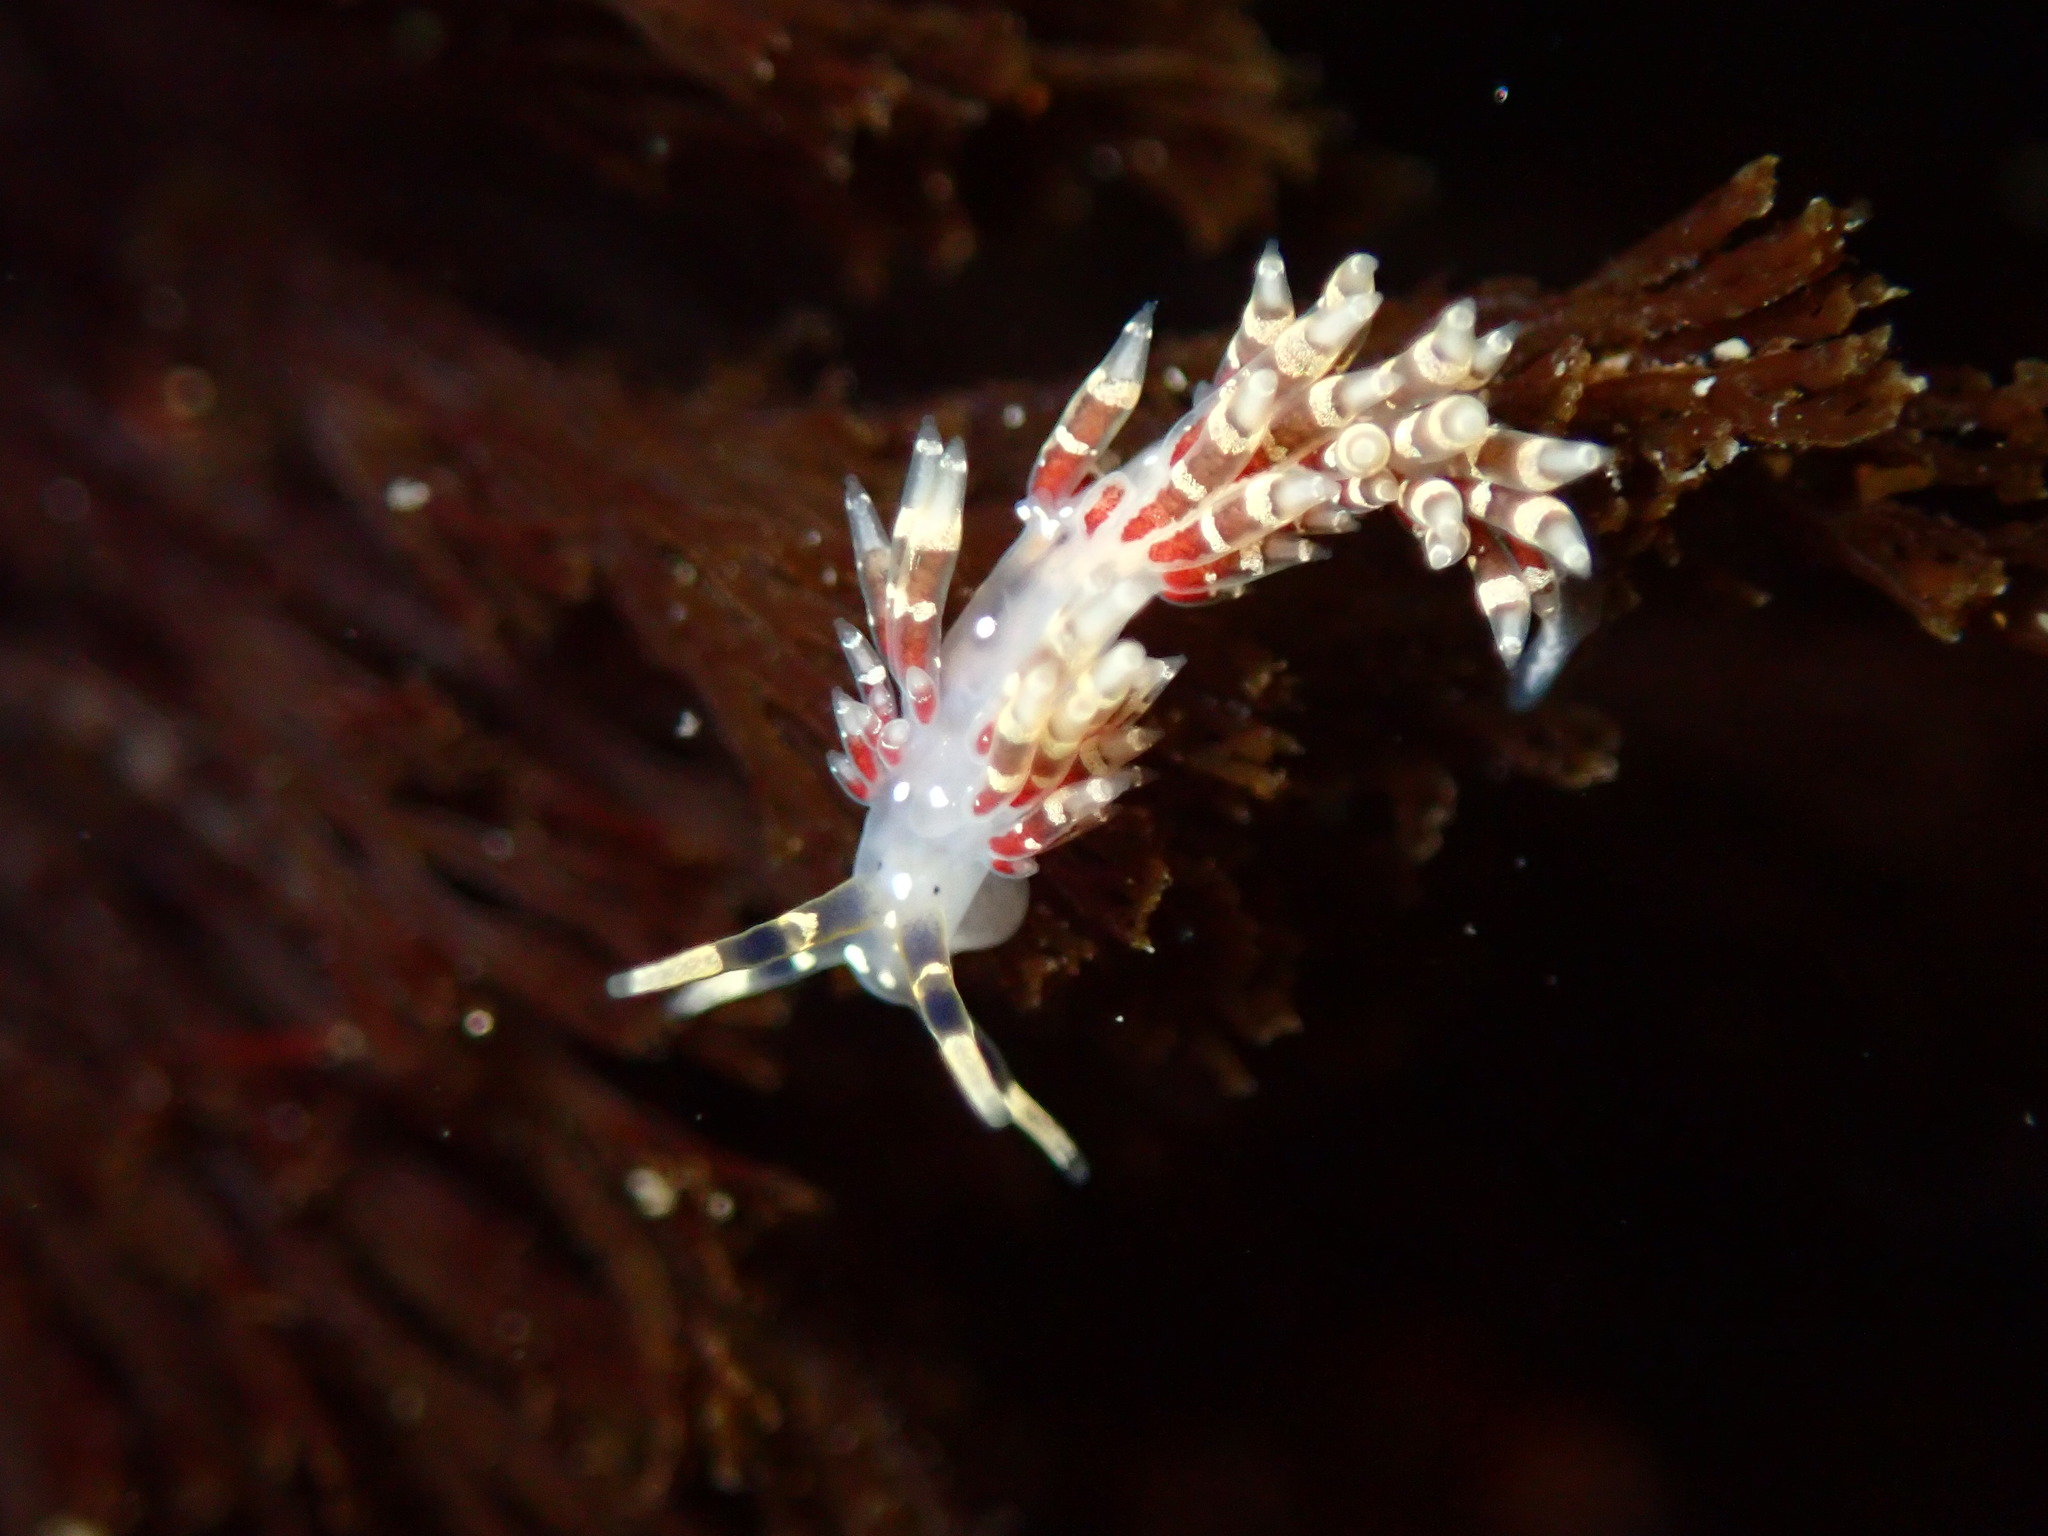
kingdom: Animalia
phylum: Mollusca
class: Gastropoda
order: Nudibranchia
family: Abronicidae
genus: Abronica
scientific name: Abronica abronia
